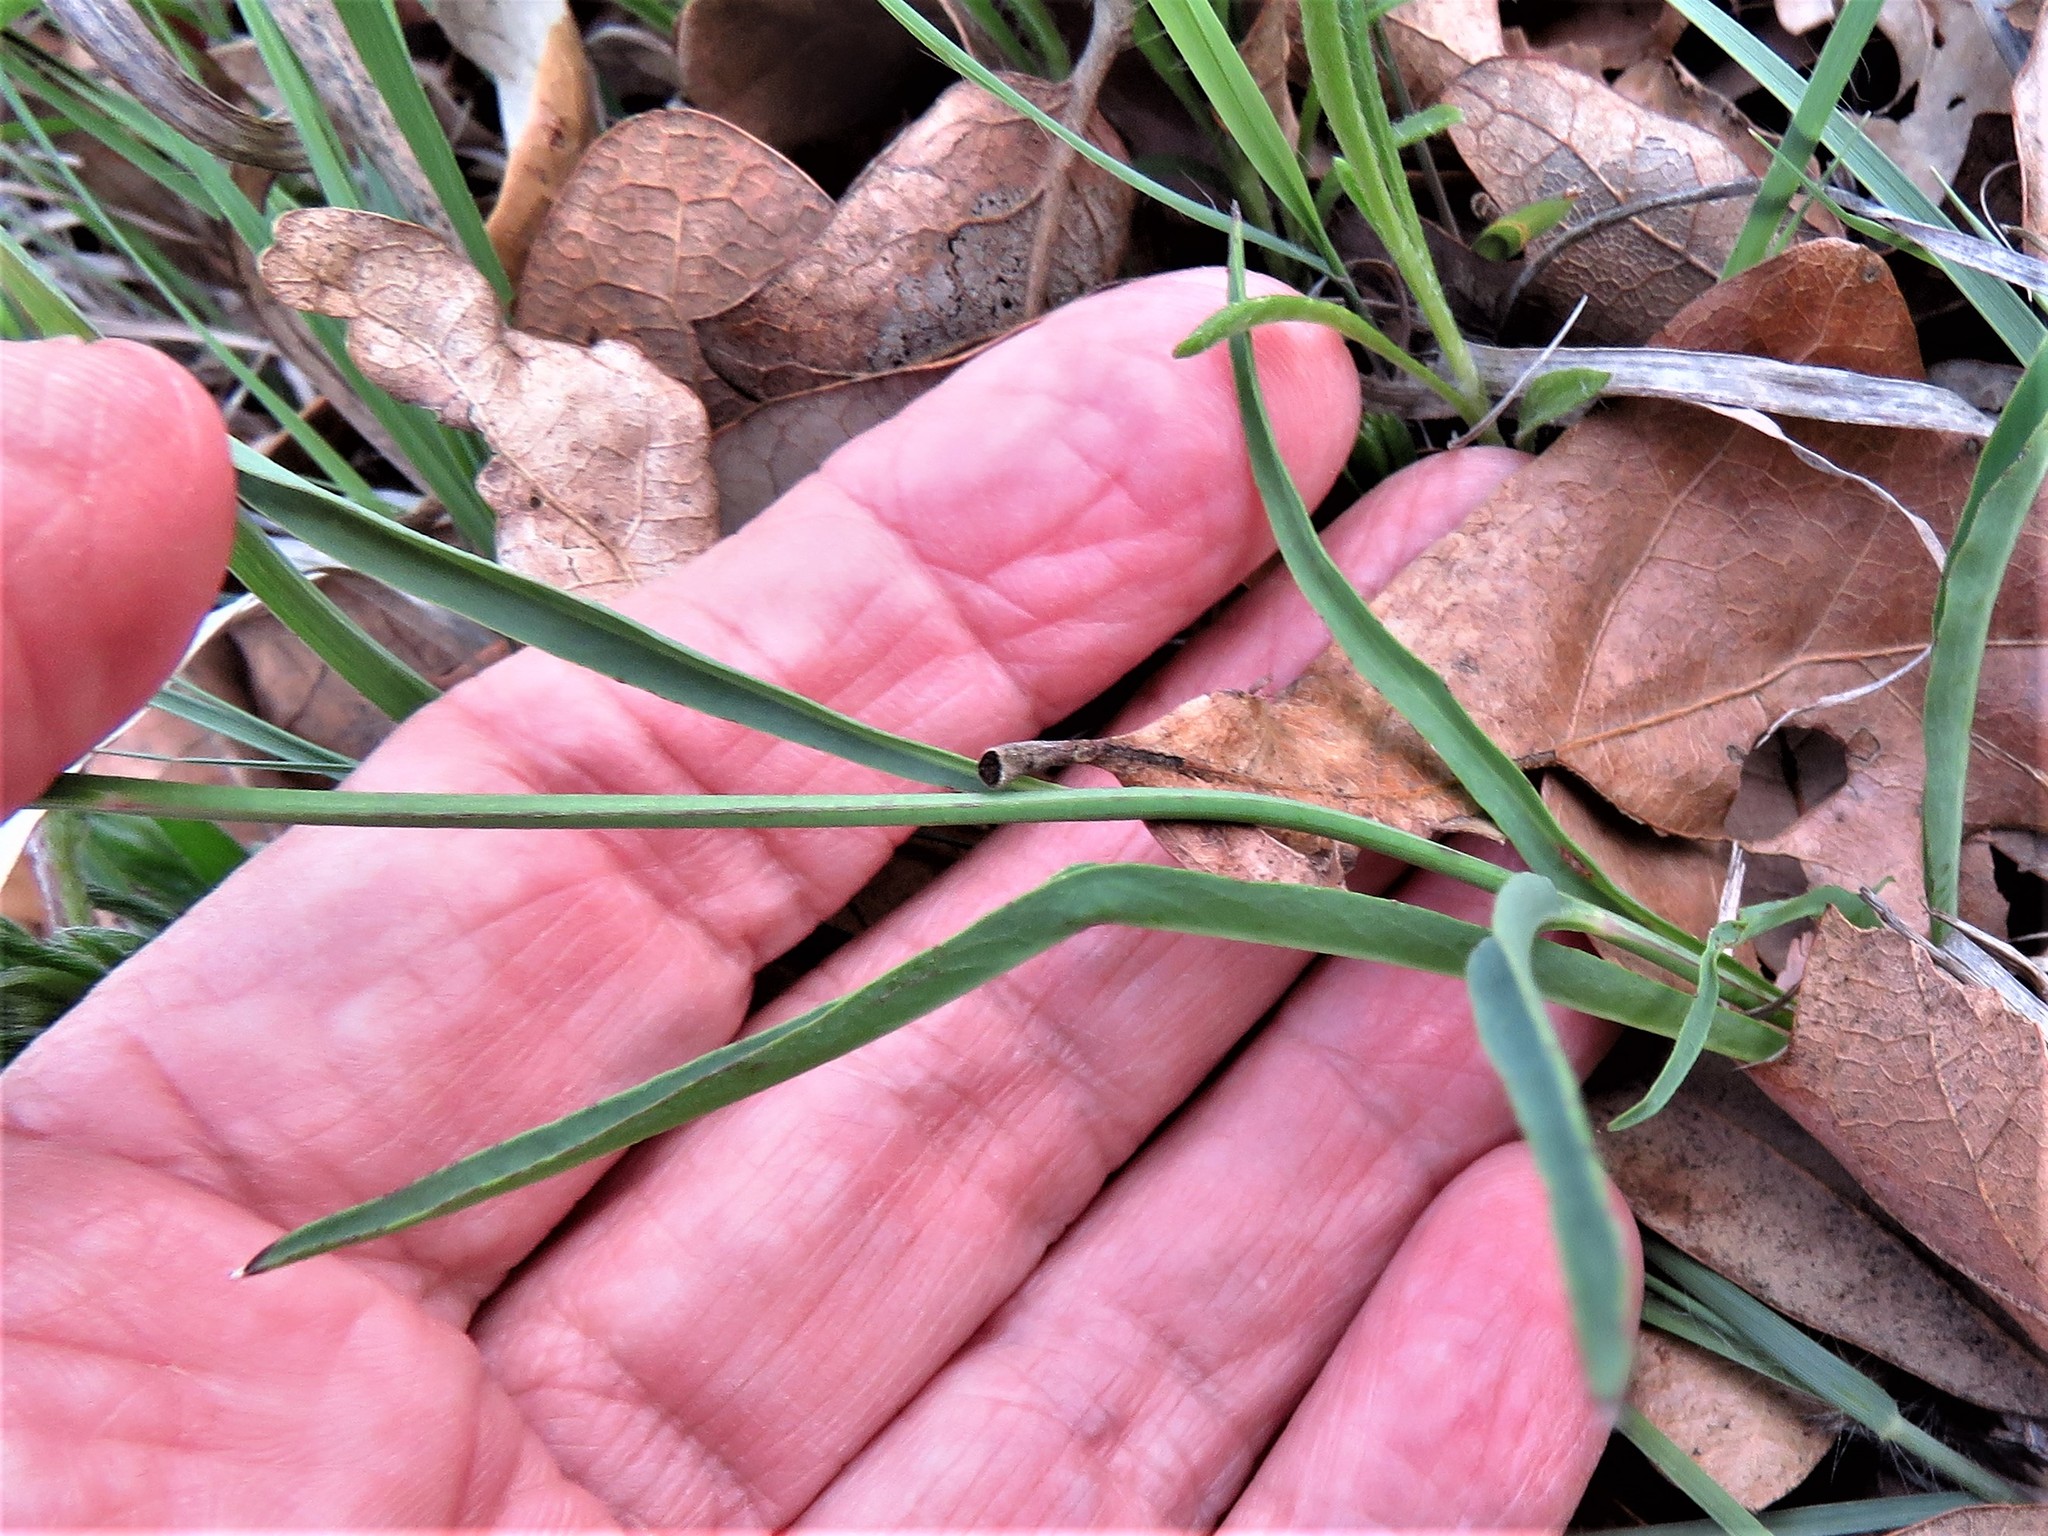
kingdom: Plantae
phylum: Tracheophyta
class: Magnoliopsida
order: Asterales
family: Asteraceae
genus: Pinaropappus
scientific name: Pinaropappus roseus
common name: Rock-lettuce
